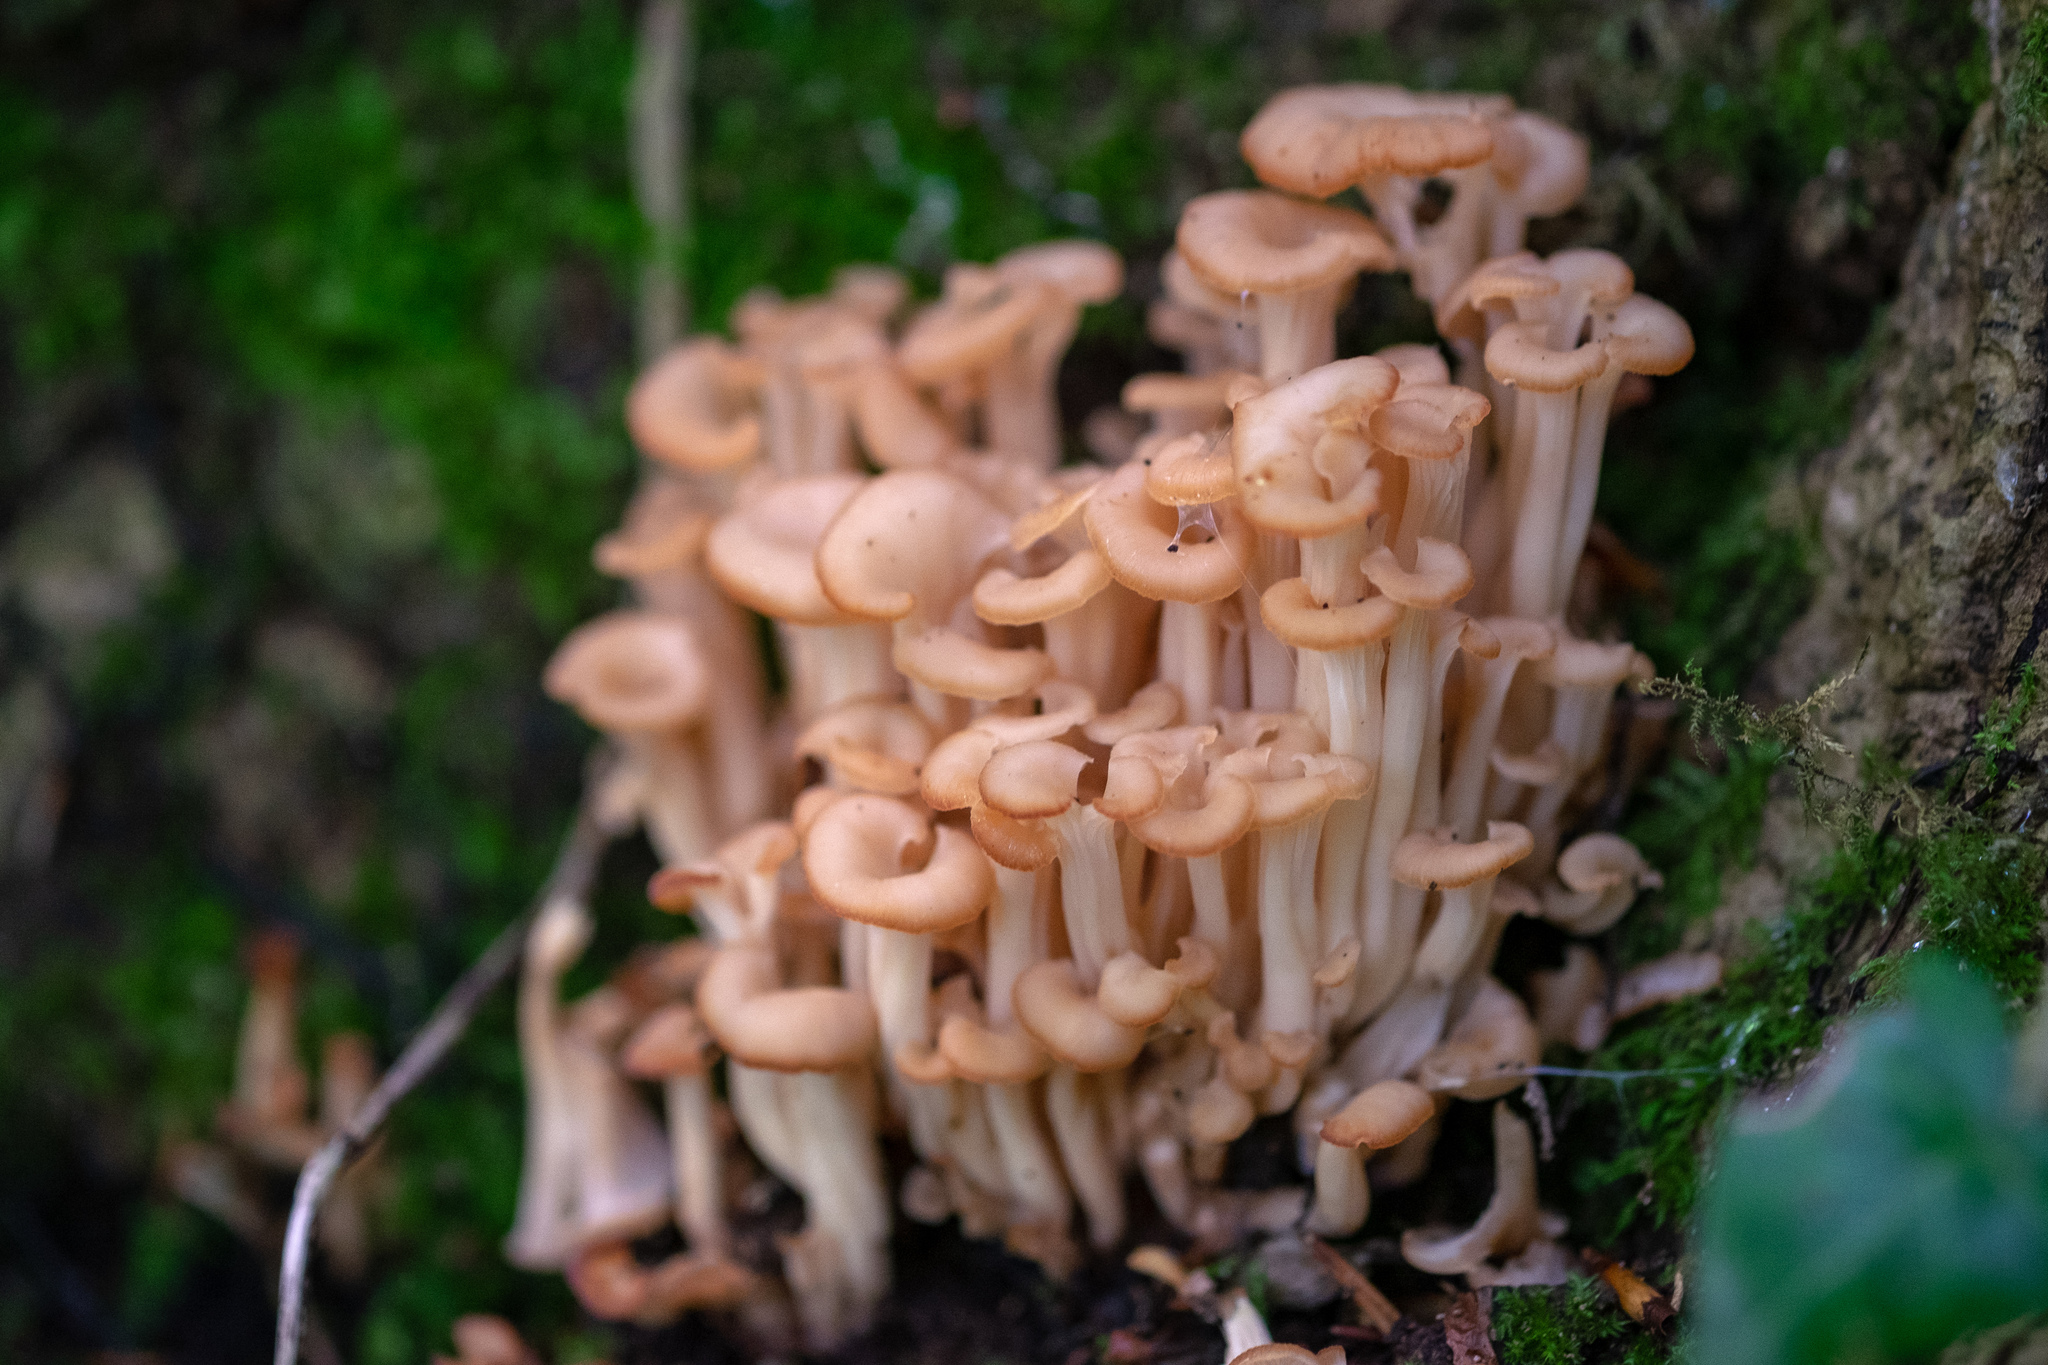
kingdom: Fungi
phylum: Basidiomycota
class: Agaricomycetes
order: Russulales
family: Auriscalpiaceae
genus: Lentinellus
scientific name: Lentinellus cochleatus
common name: Aniseed cockleshell
